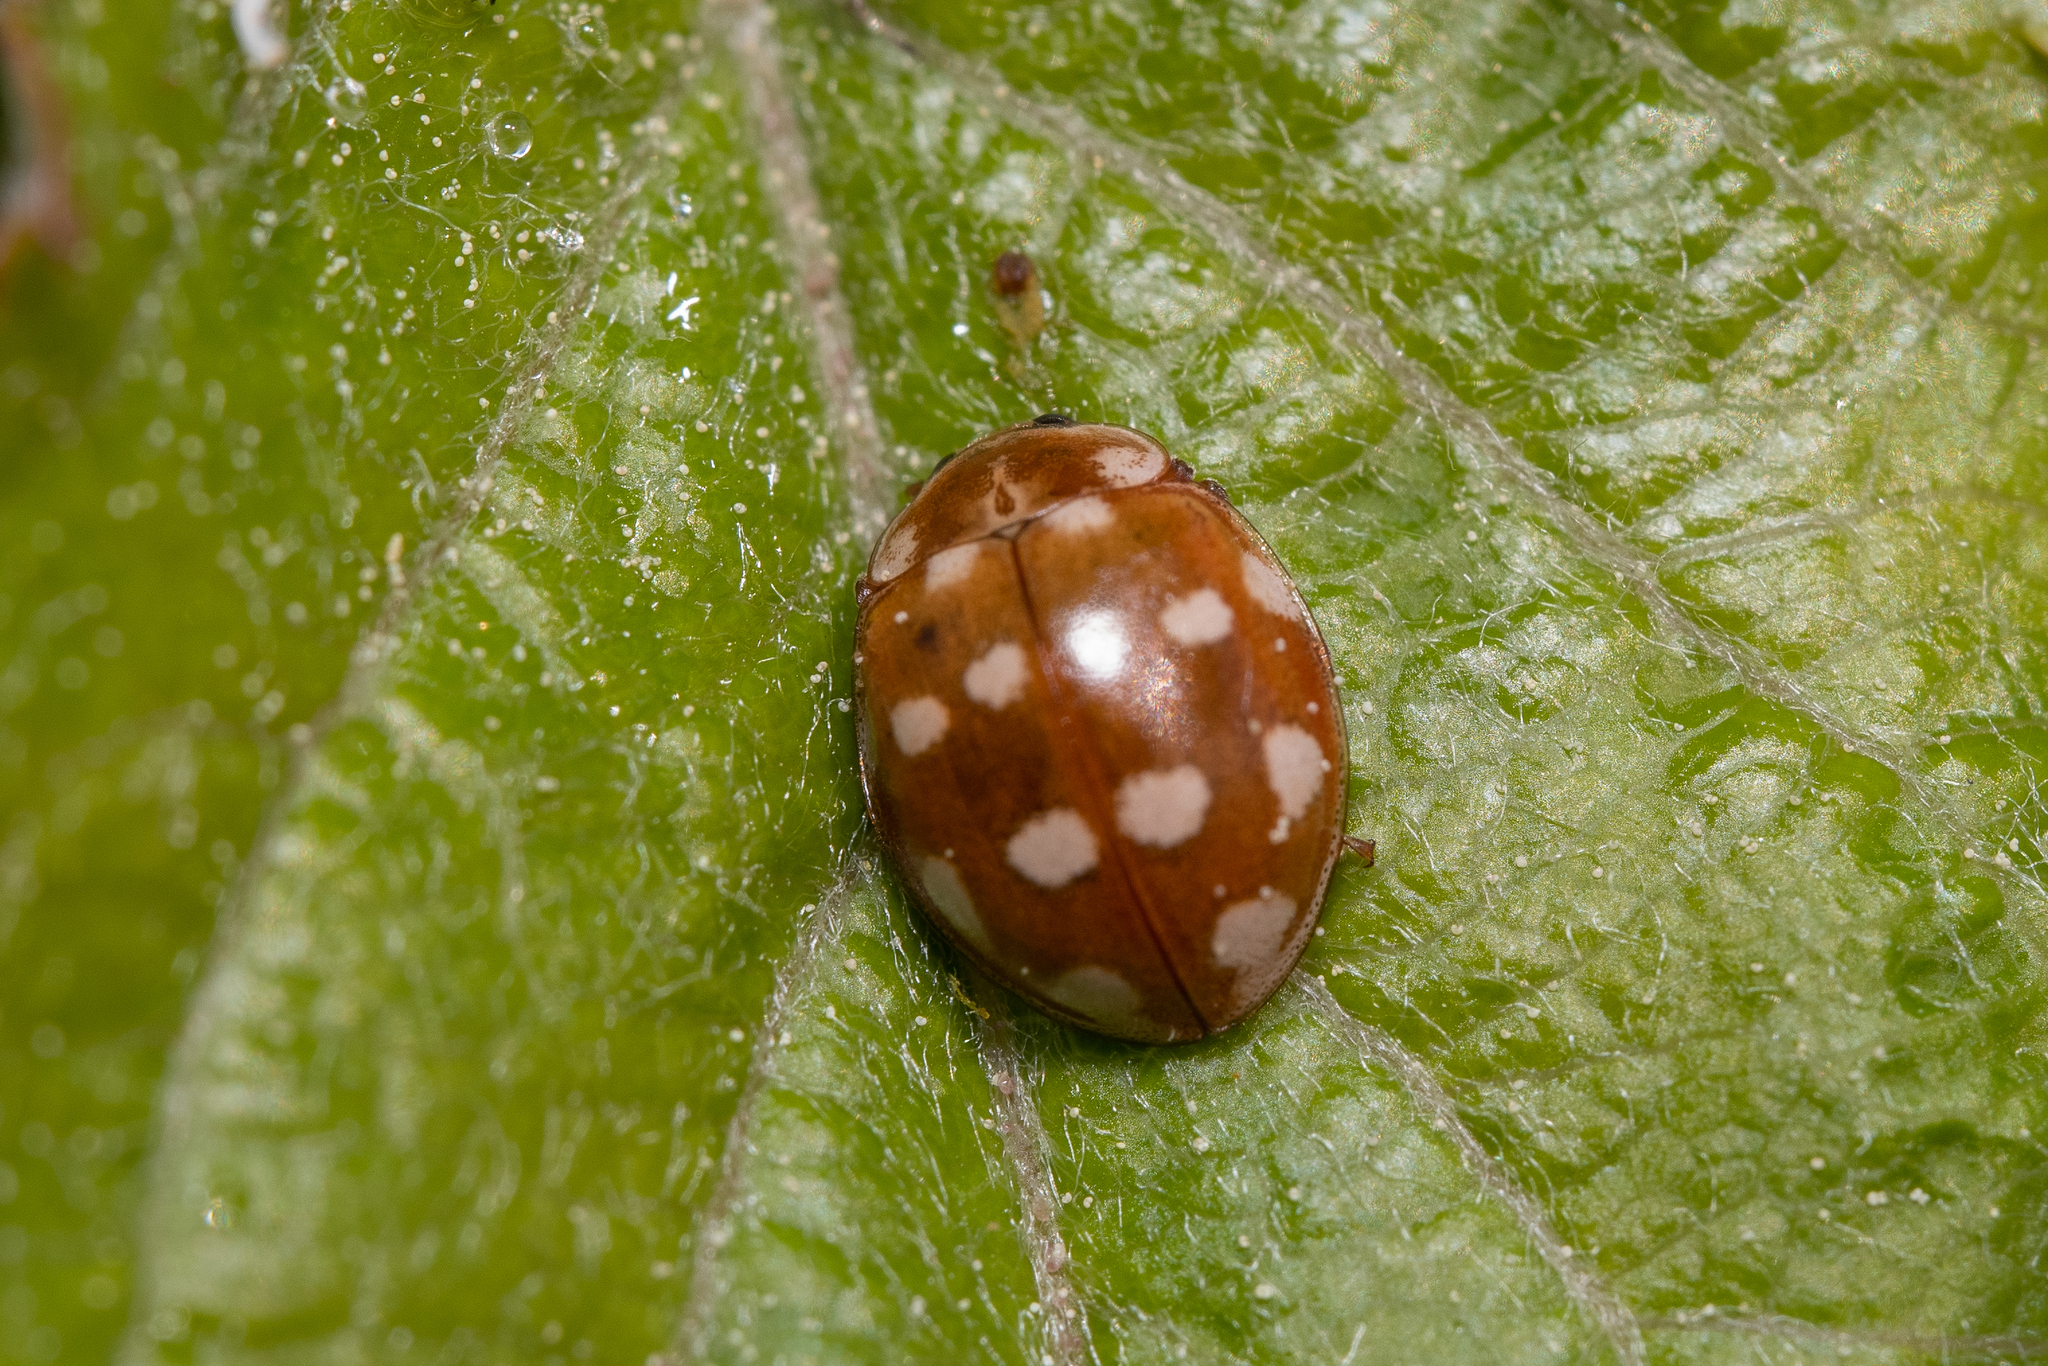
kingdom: Animalia
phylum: Arthropoda
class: Insecta
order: Coleoptera
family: Coccinellidae
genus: Calvia
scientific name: Calvia quatuordecimguttata
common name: Cream-spot ladybird
